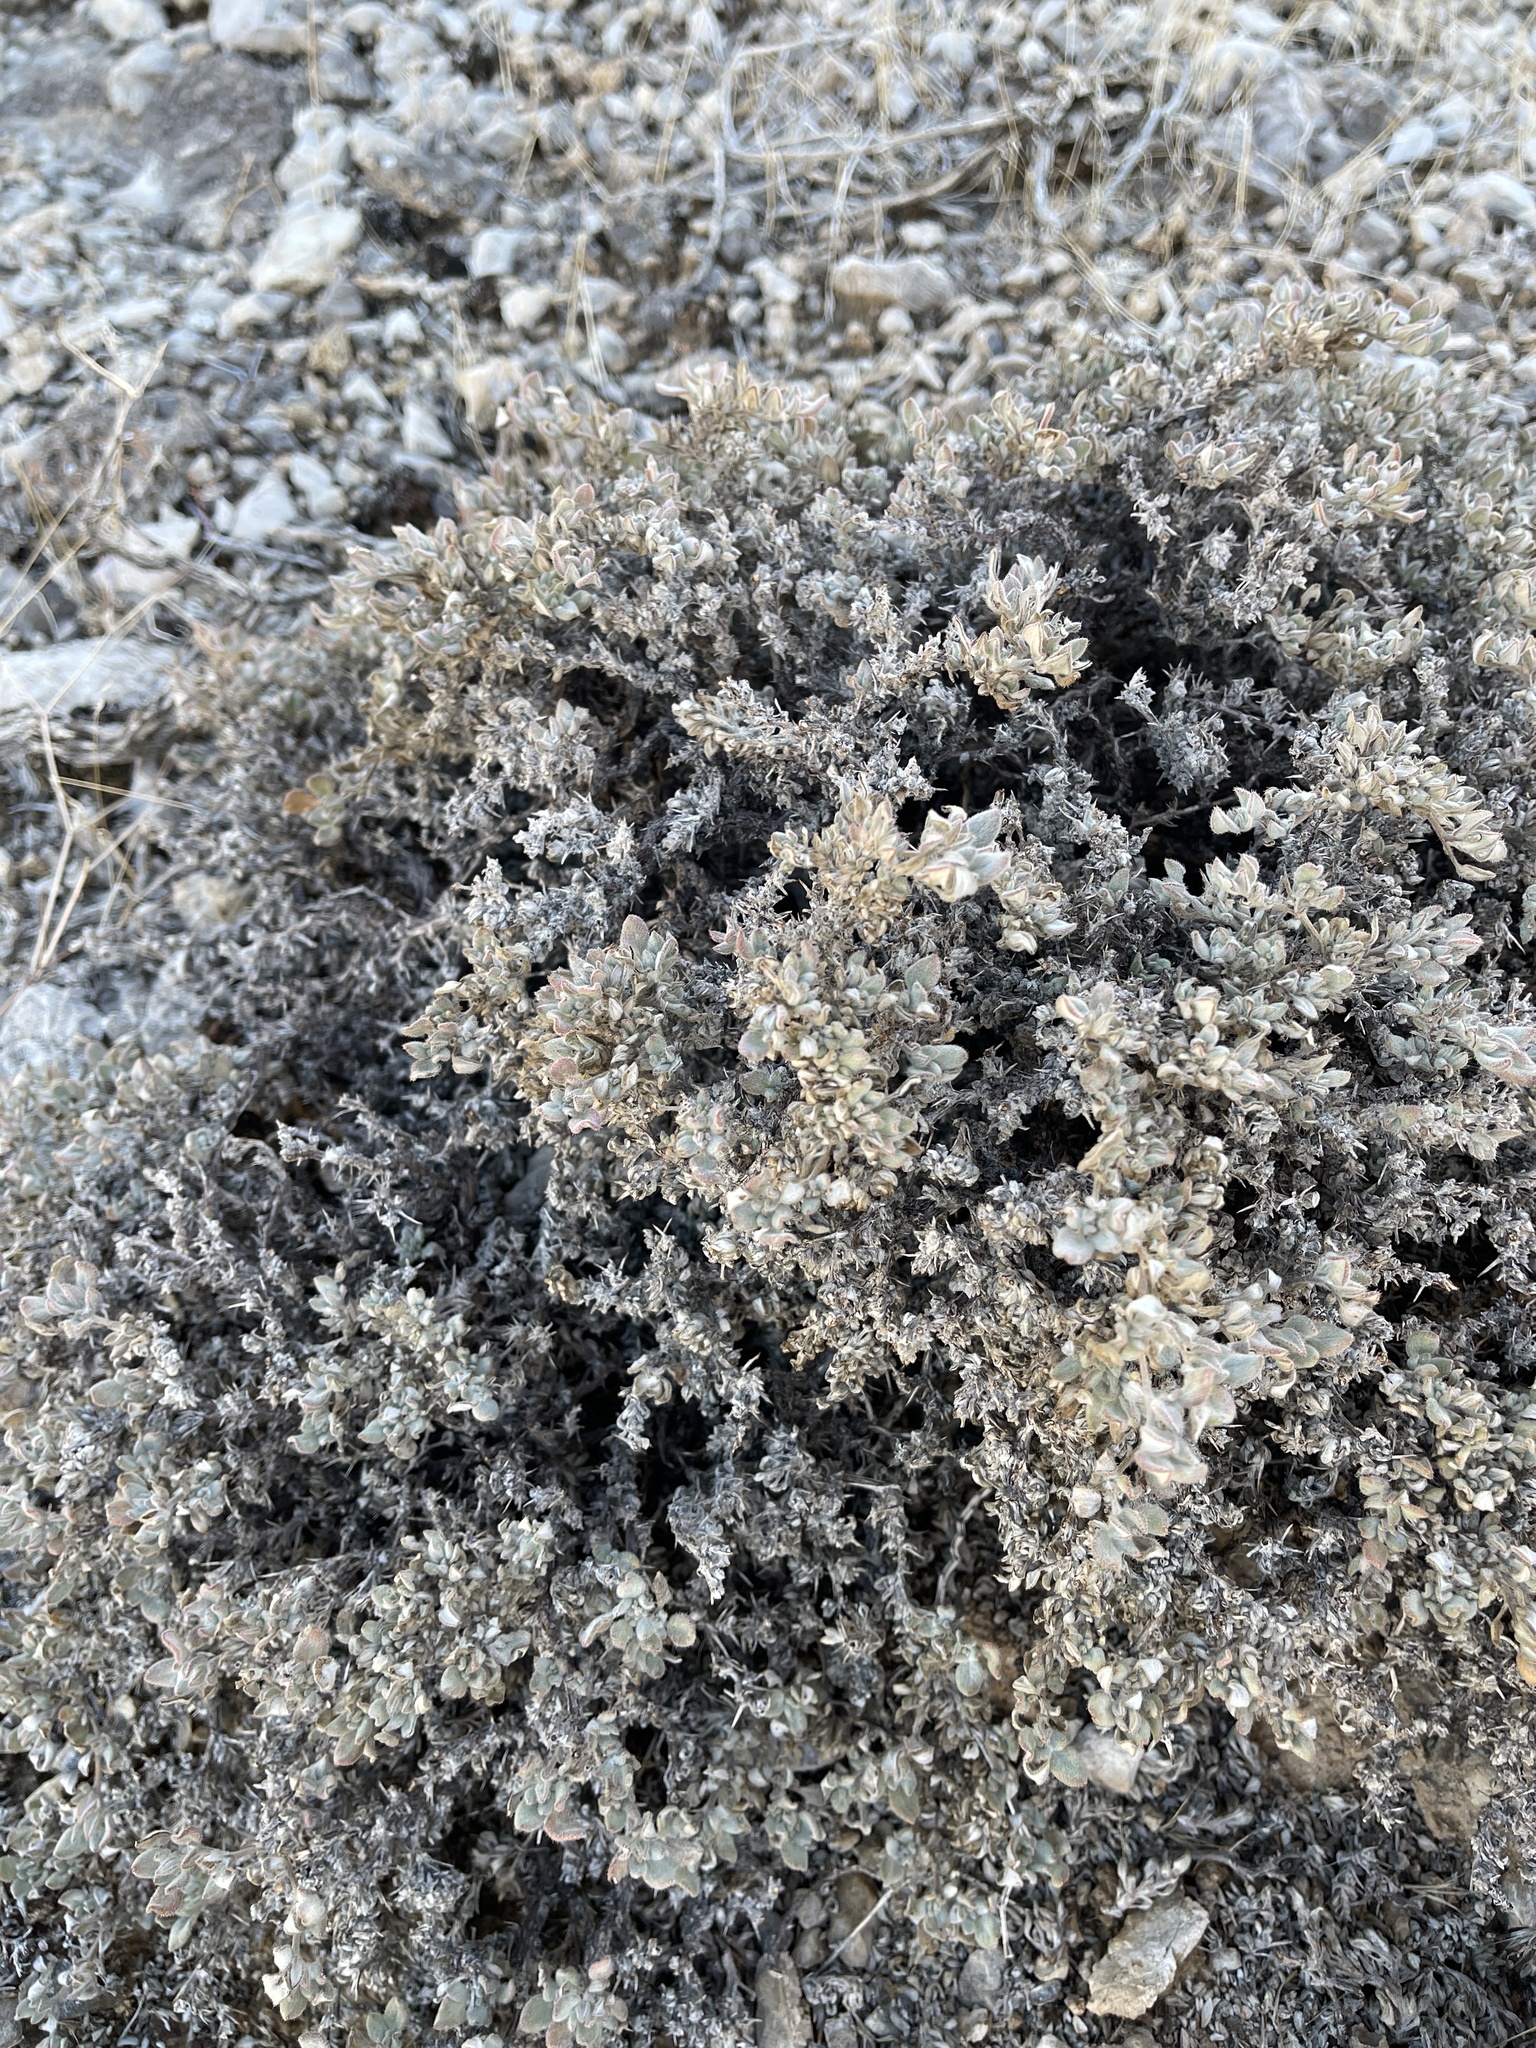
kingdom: Plantae
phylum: Tracheophyta
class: Magnoliopsida
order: Boraginales
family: Ehretiaceae
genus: Tiquilia
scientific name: Tiquilia canescens
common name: Hairy tiquilia
